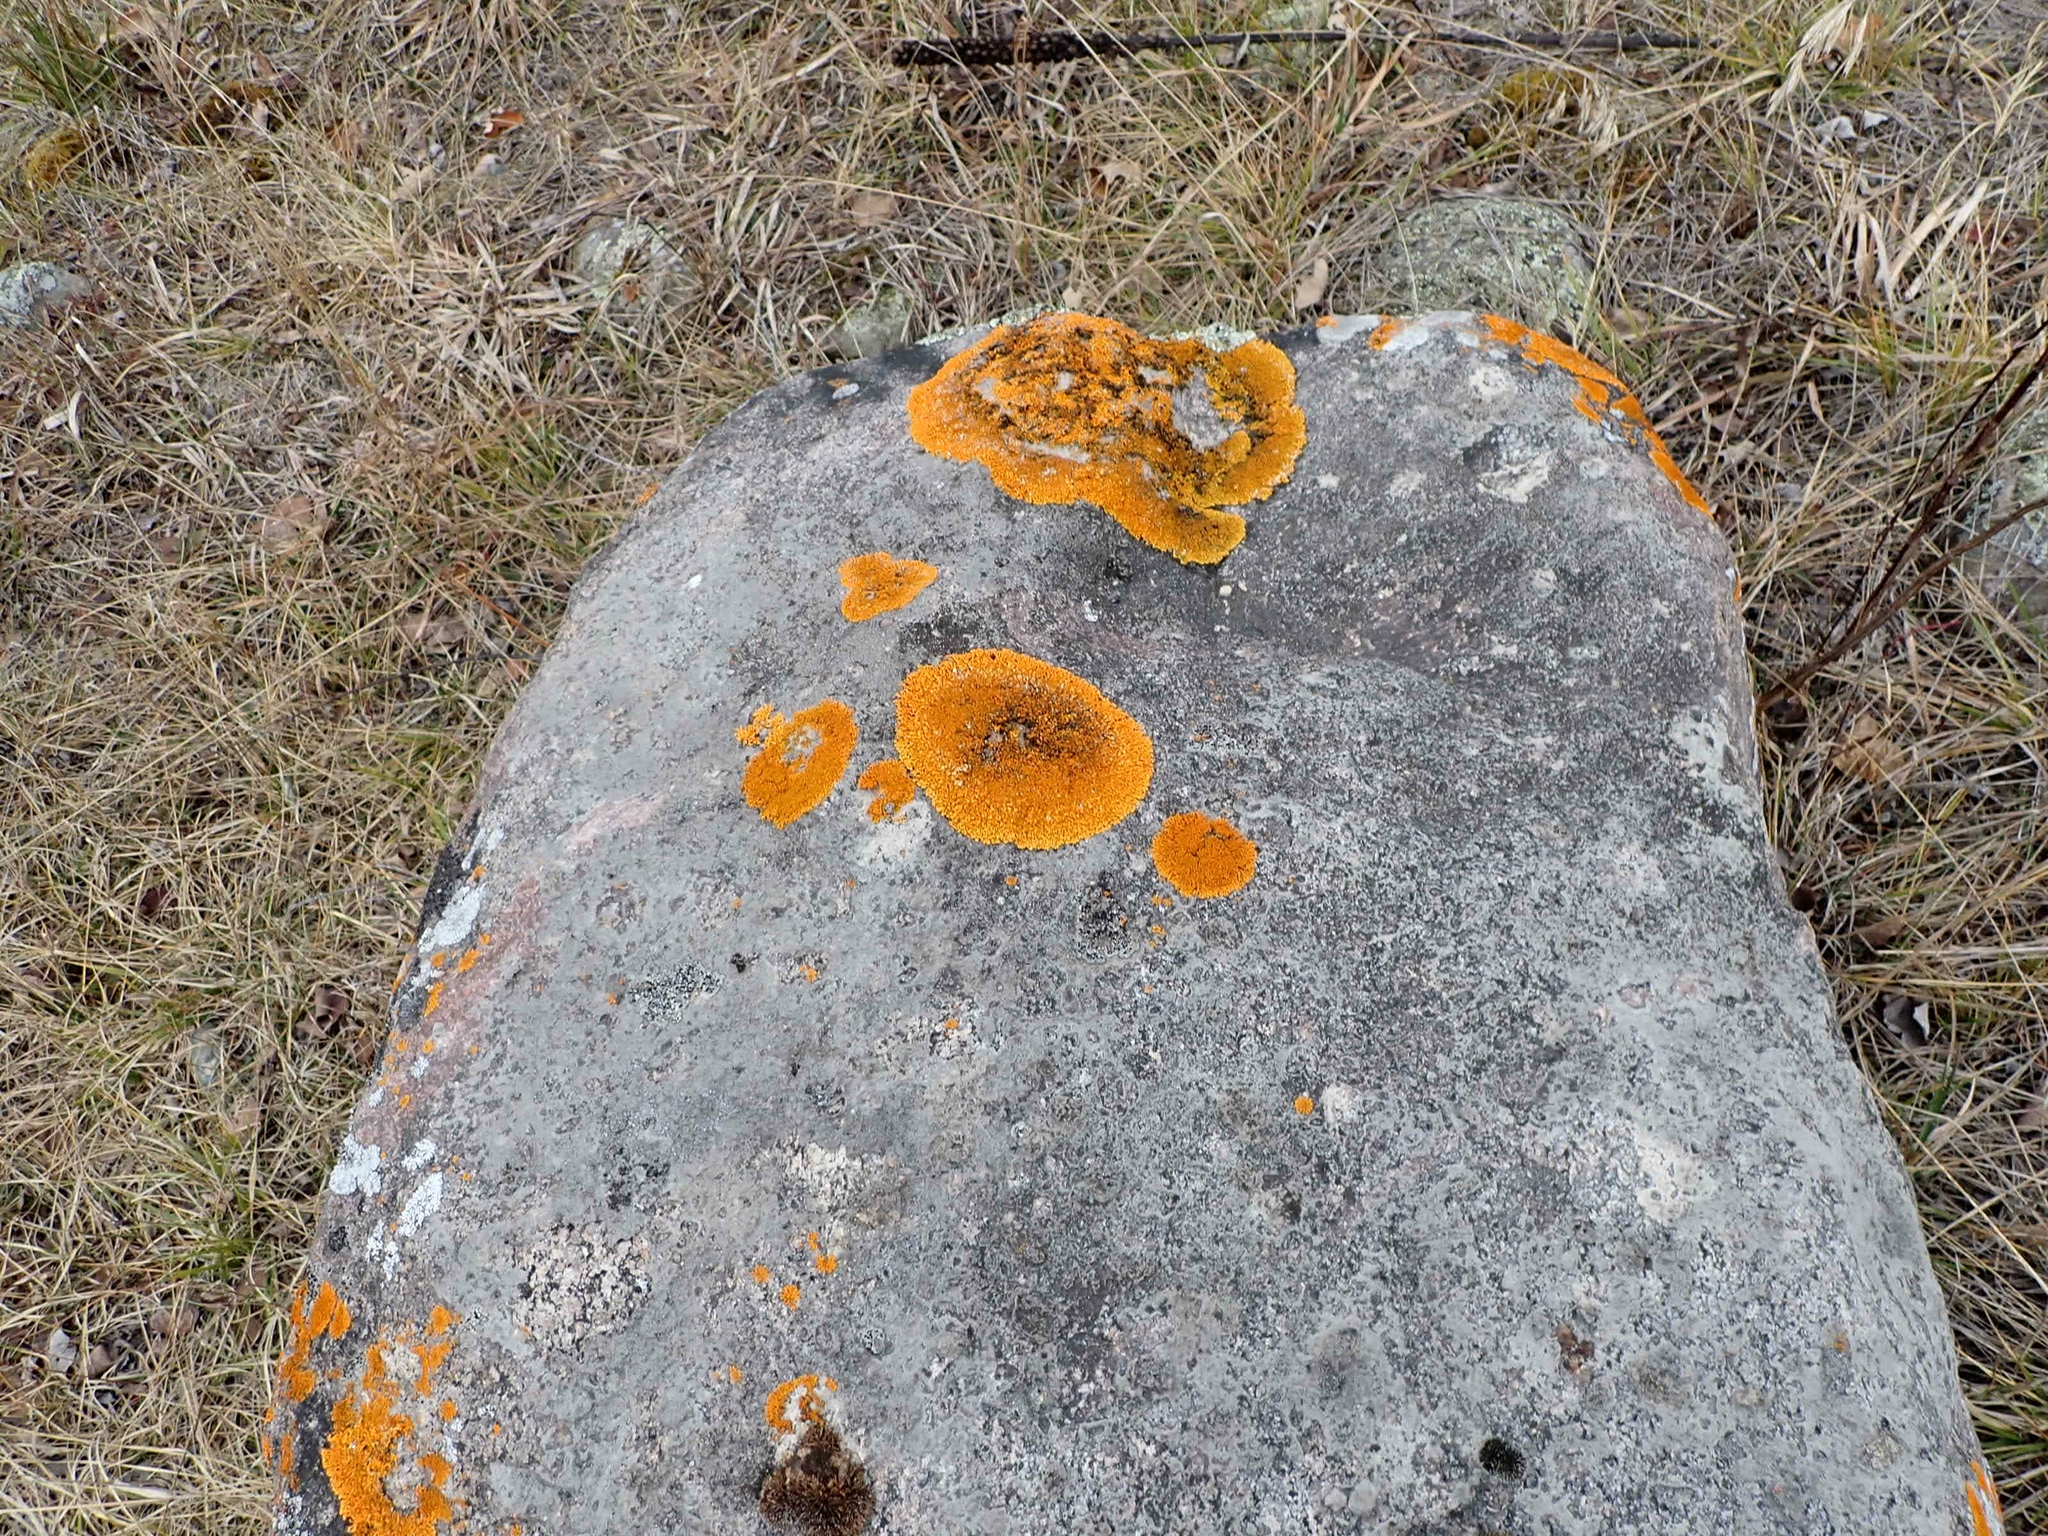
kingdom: Fungi
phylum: Ascomycota
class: Lecanoromycetes
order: Teloschistales
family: Teloschistaceae
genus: Xanthoria
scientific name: Xanthoria elegans
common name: Elegant sunburst lichen
